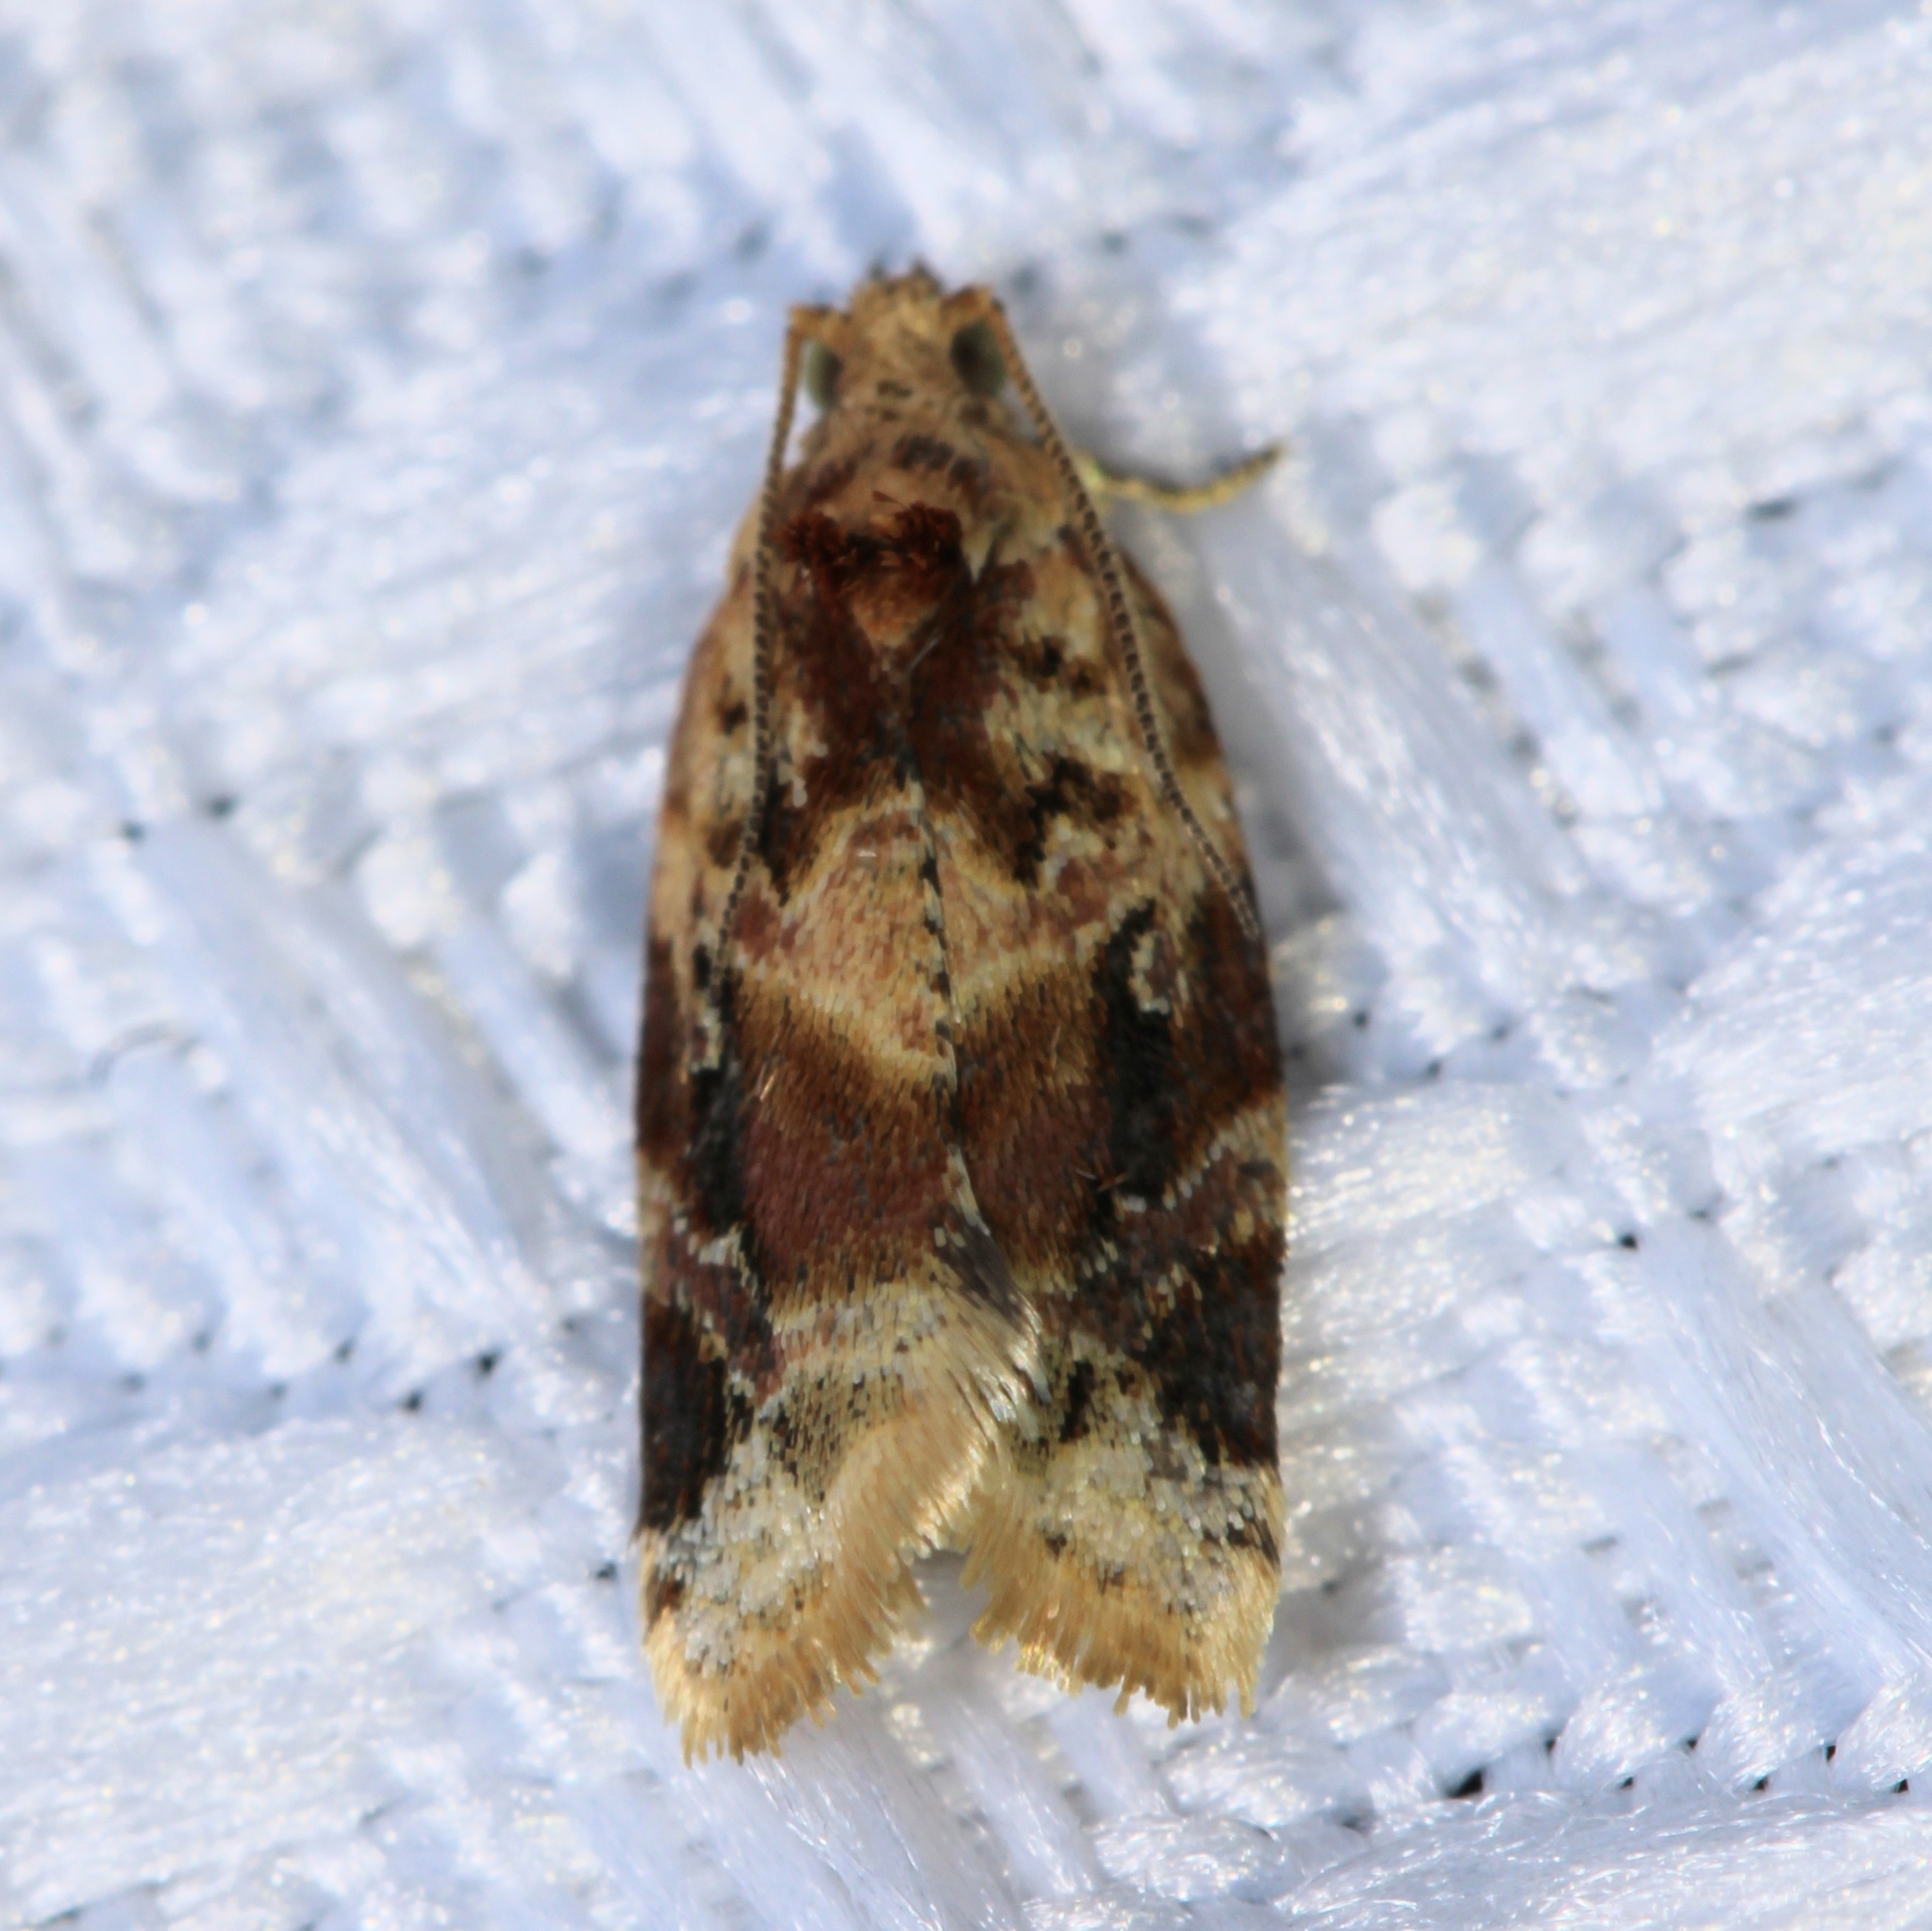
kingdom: Animalia
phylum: Arthropoda
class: Insecta
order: Lepidoptera
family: Tortricidae
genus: Argyrotaenia
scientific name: Argyrotaenia velutinana
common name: Red-banded leafroller moth
